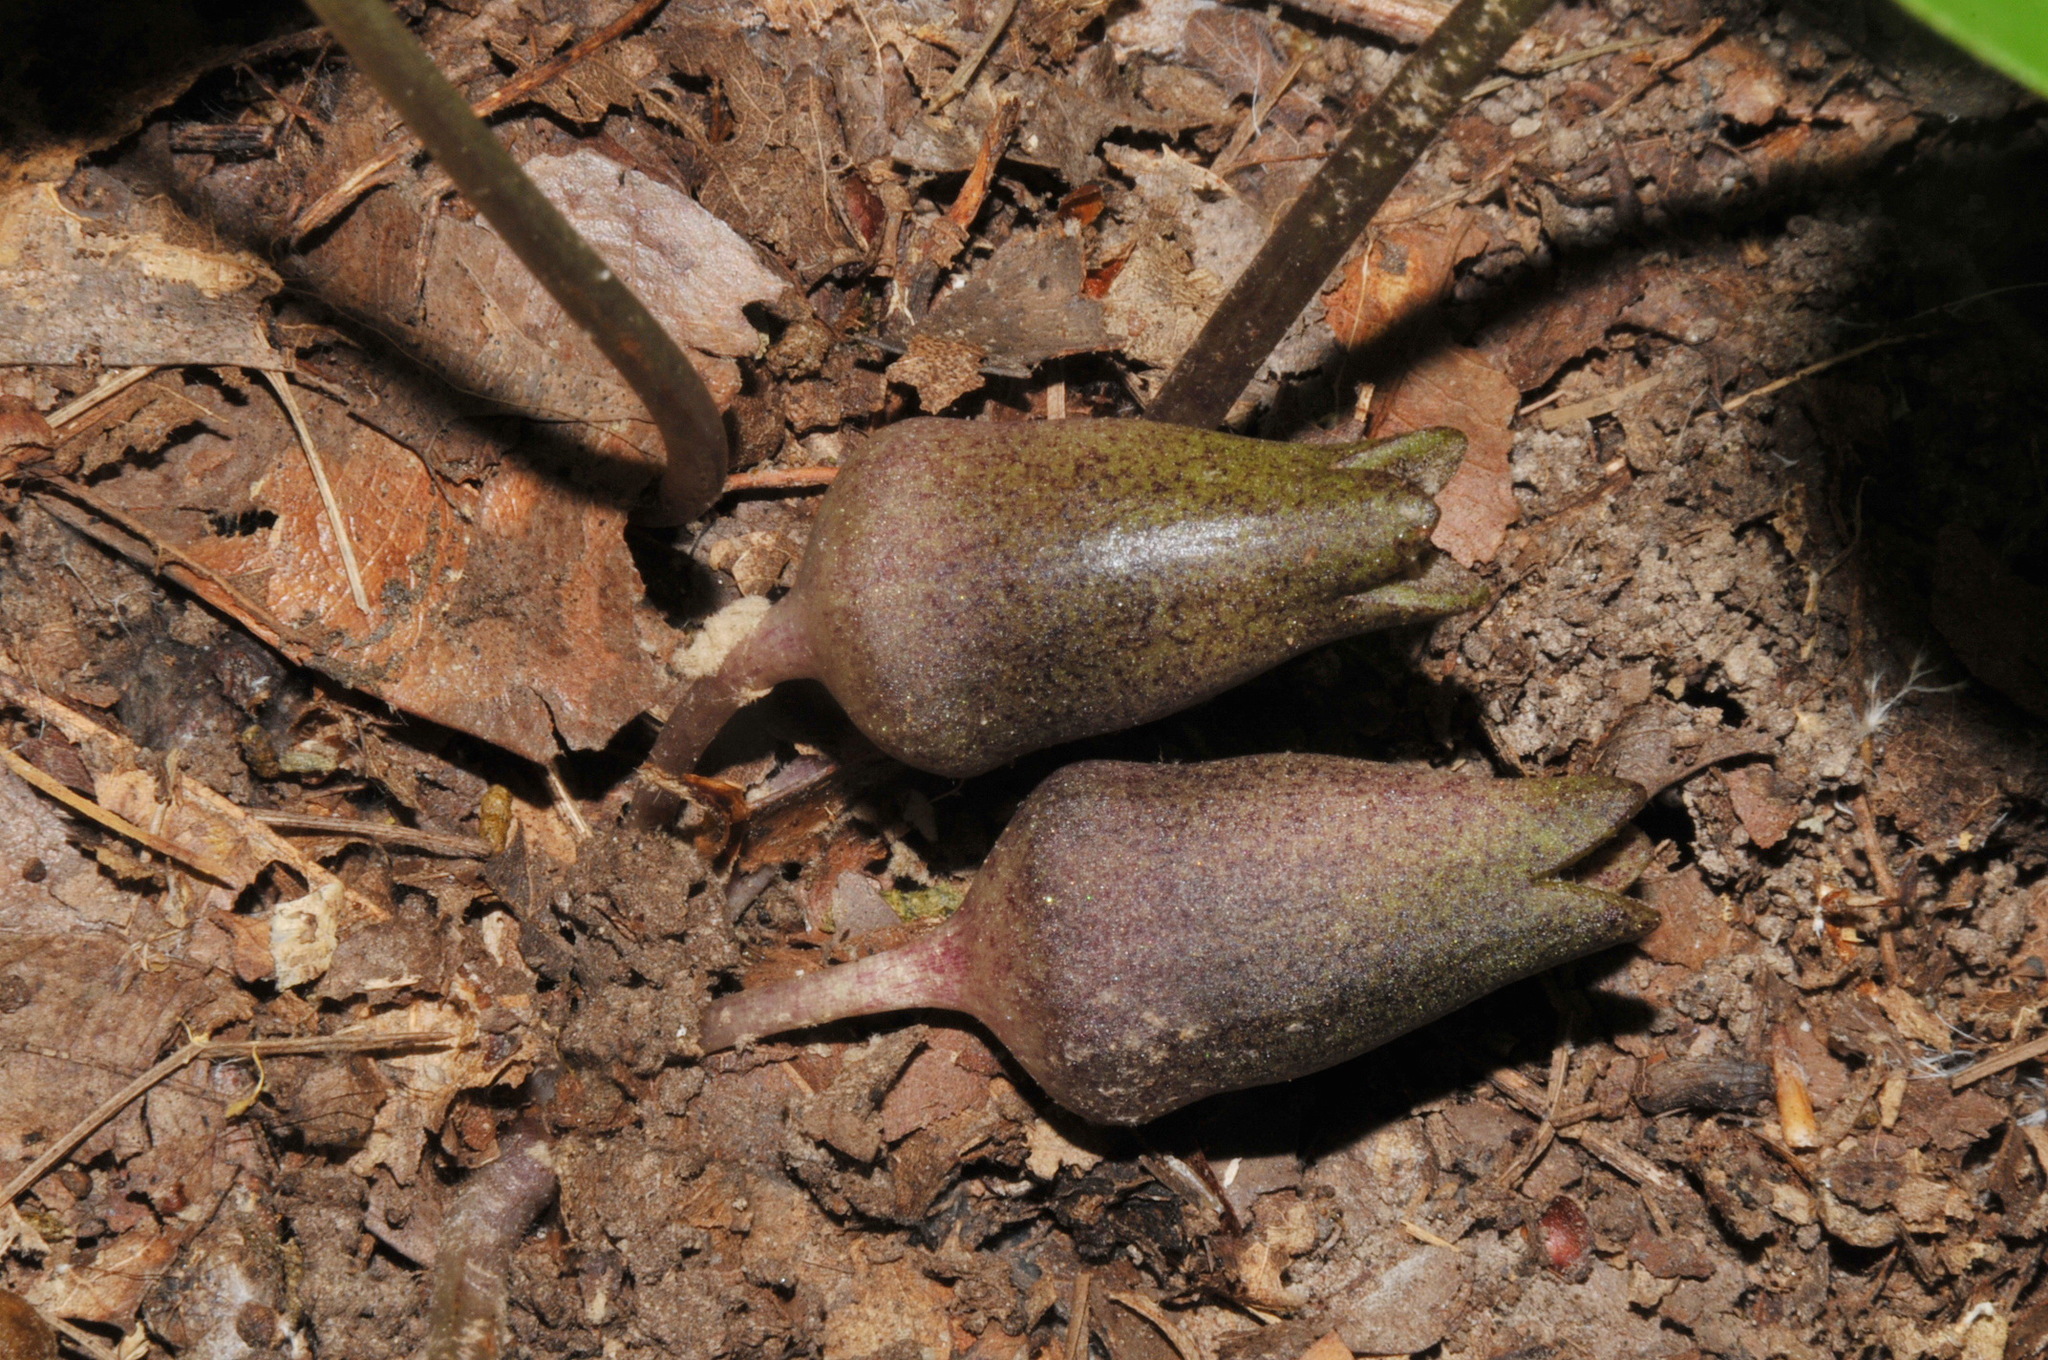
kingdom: Plantae
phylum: Tracheophyta
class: Magnoliopsida
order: Piperales
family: Aristolochiaceae
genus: Hexastylis
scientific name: Hexastylis arifolia
